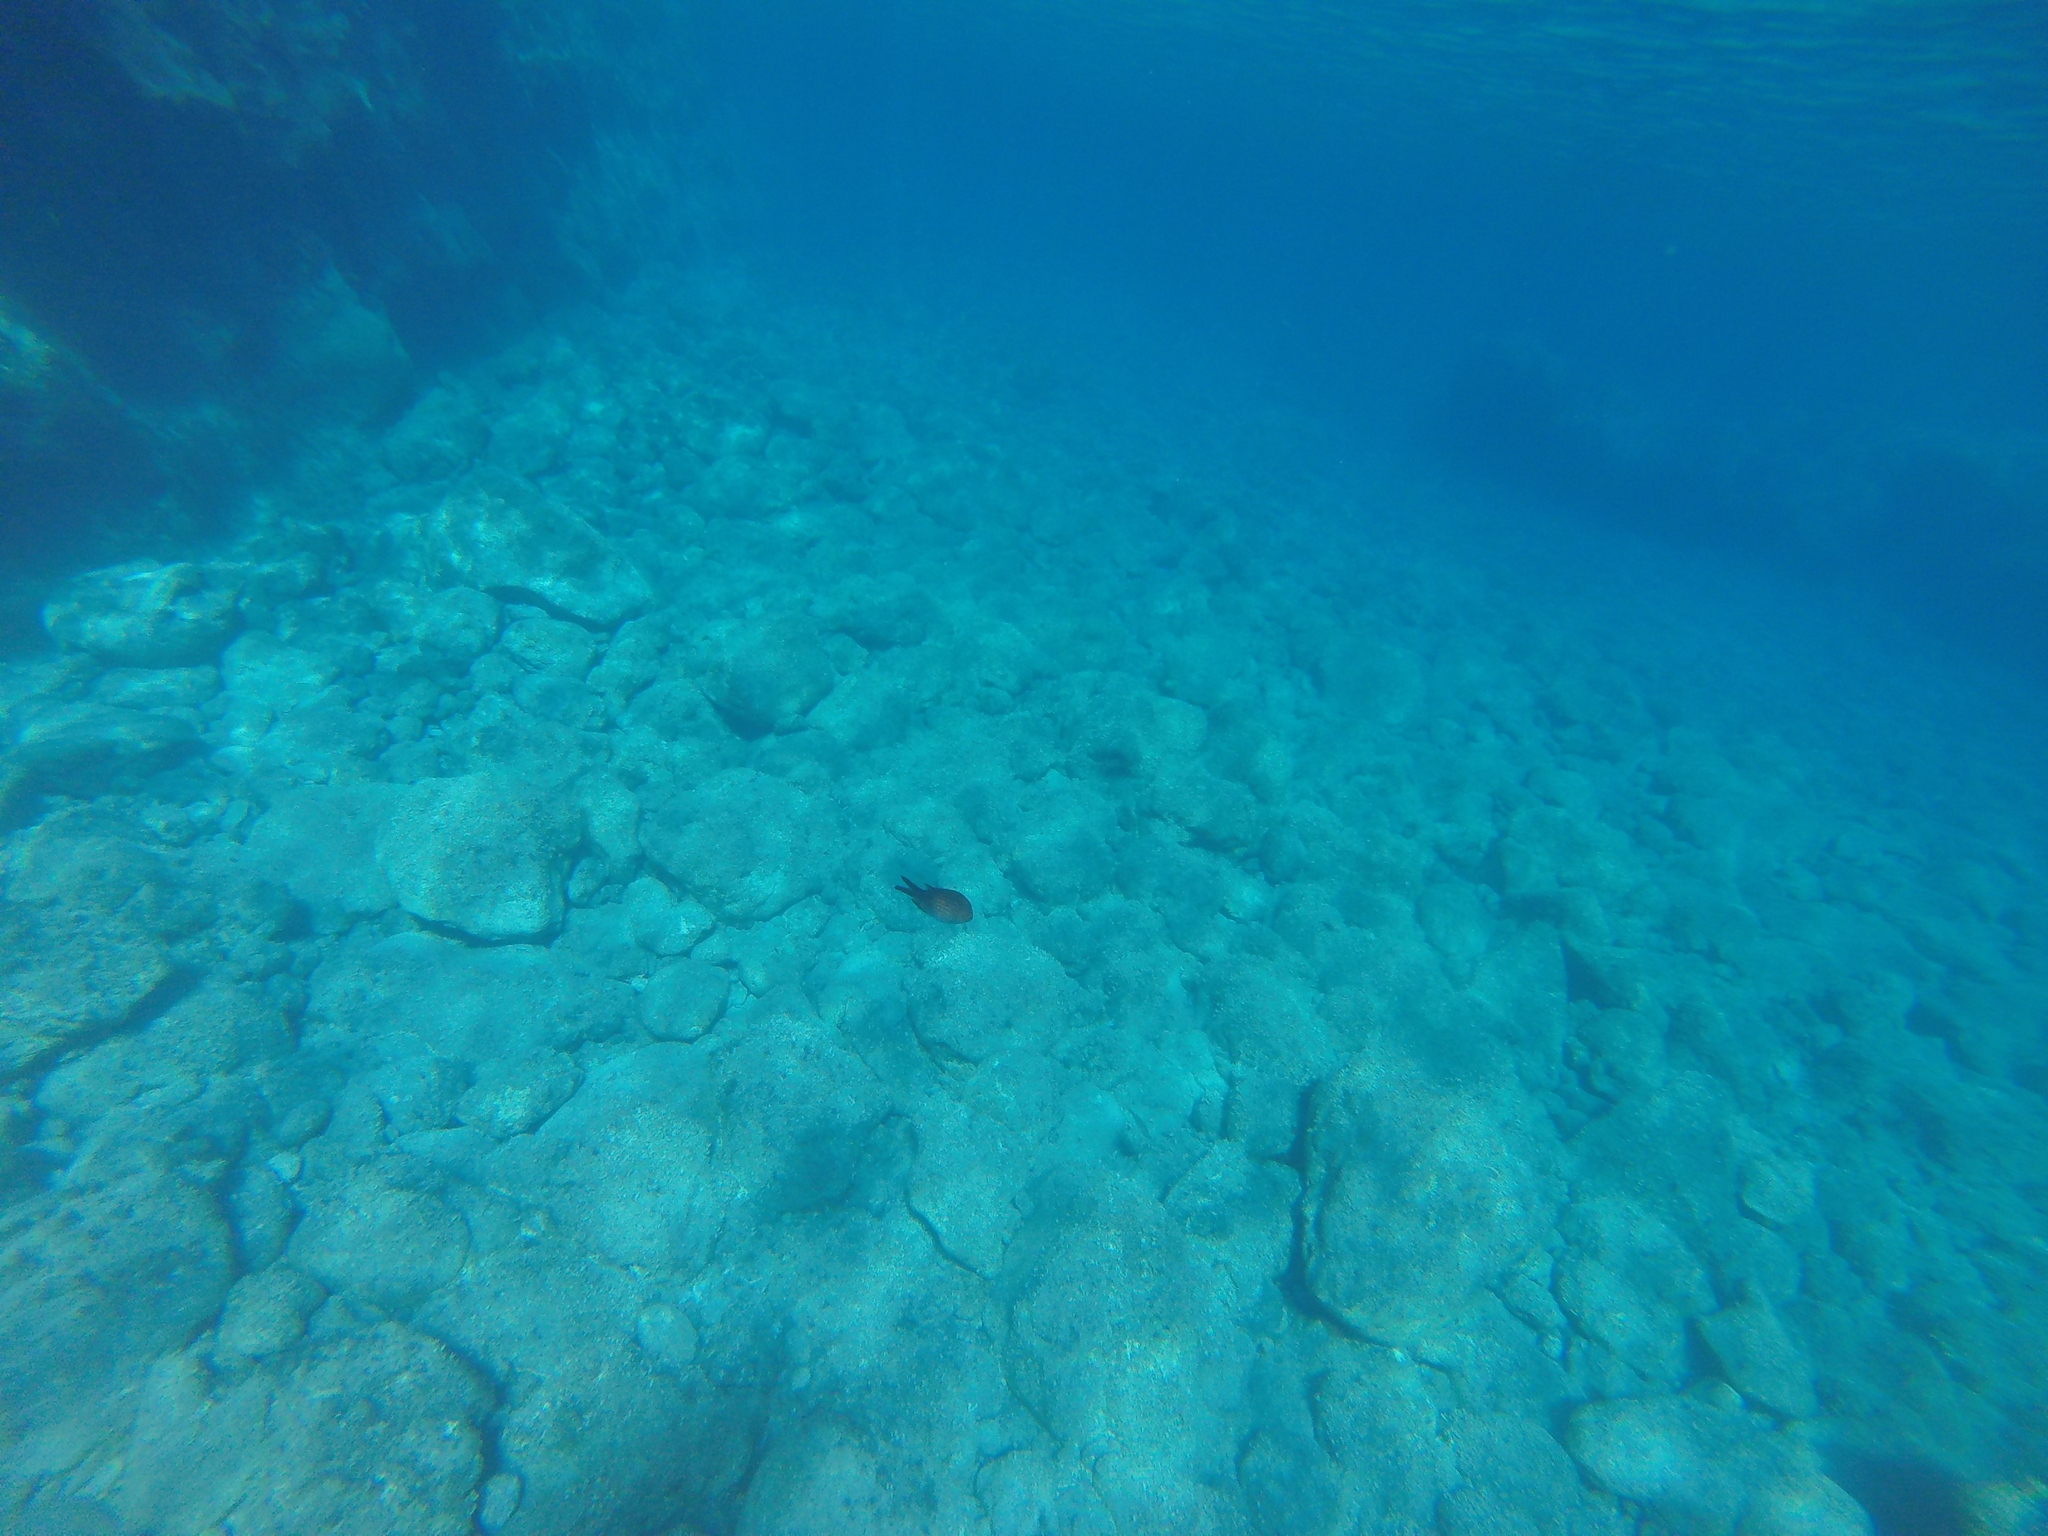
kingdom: Animalia
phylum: Chordata
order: Perciformes
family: Pomacentridae
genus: Chromis
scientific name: Chromis chromis
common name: Damselfish
